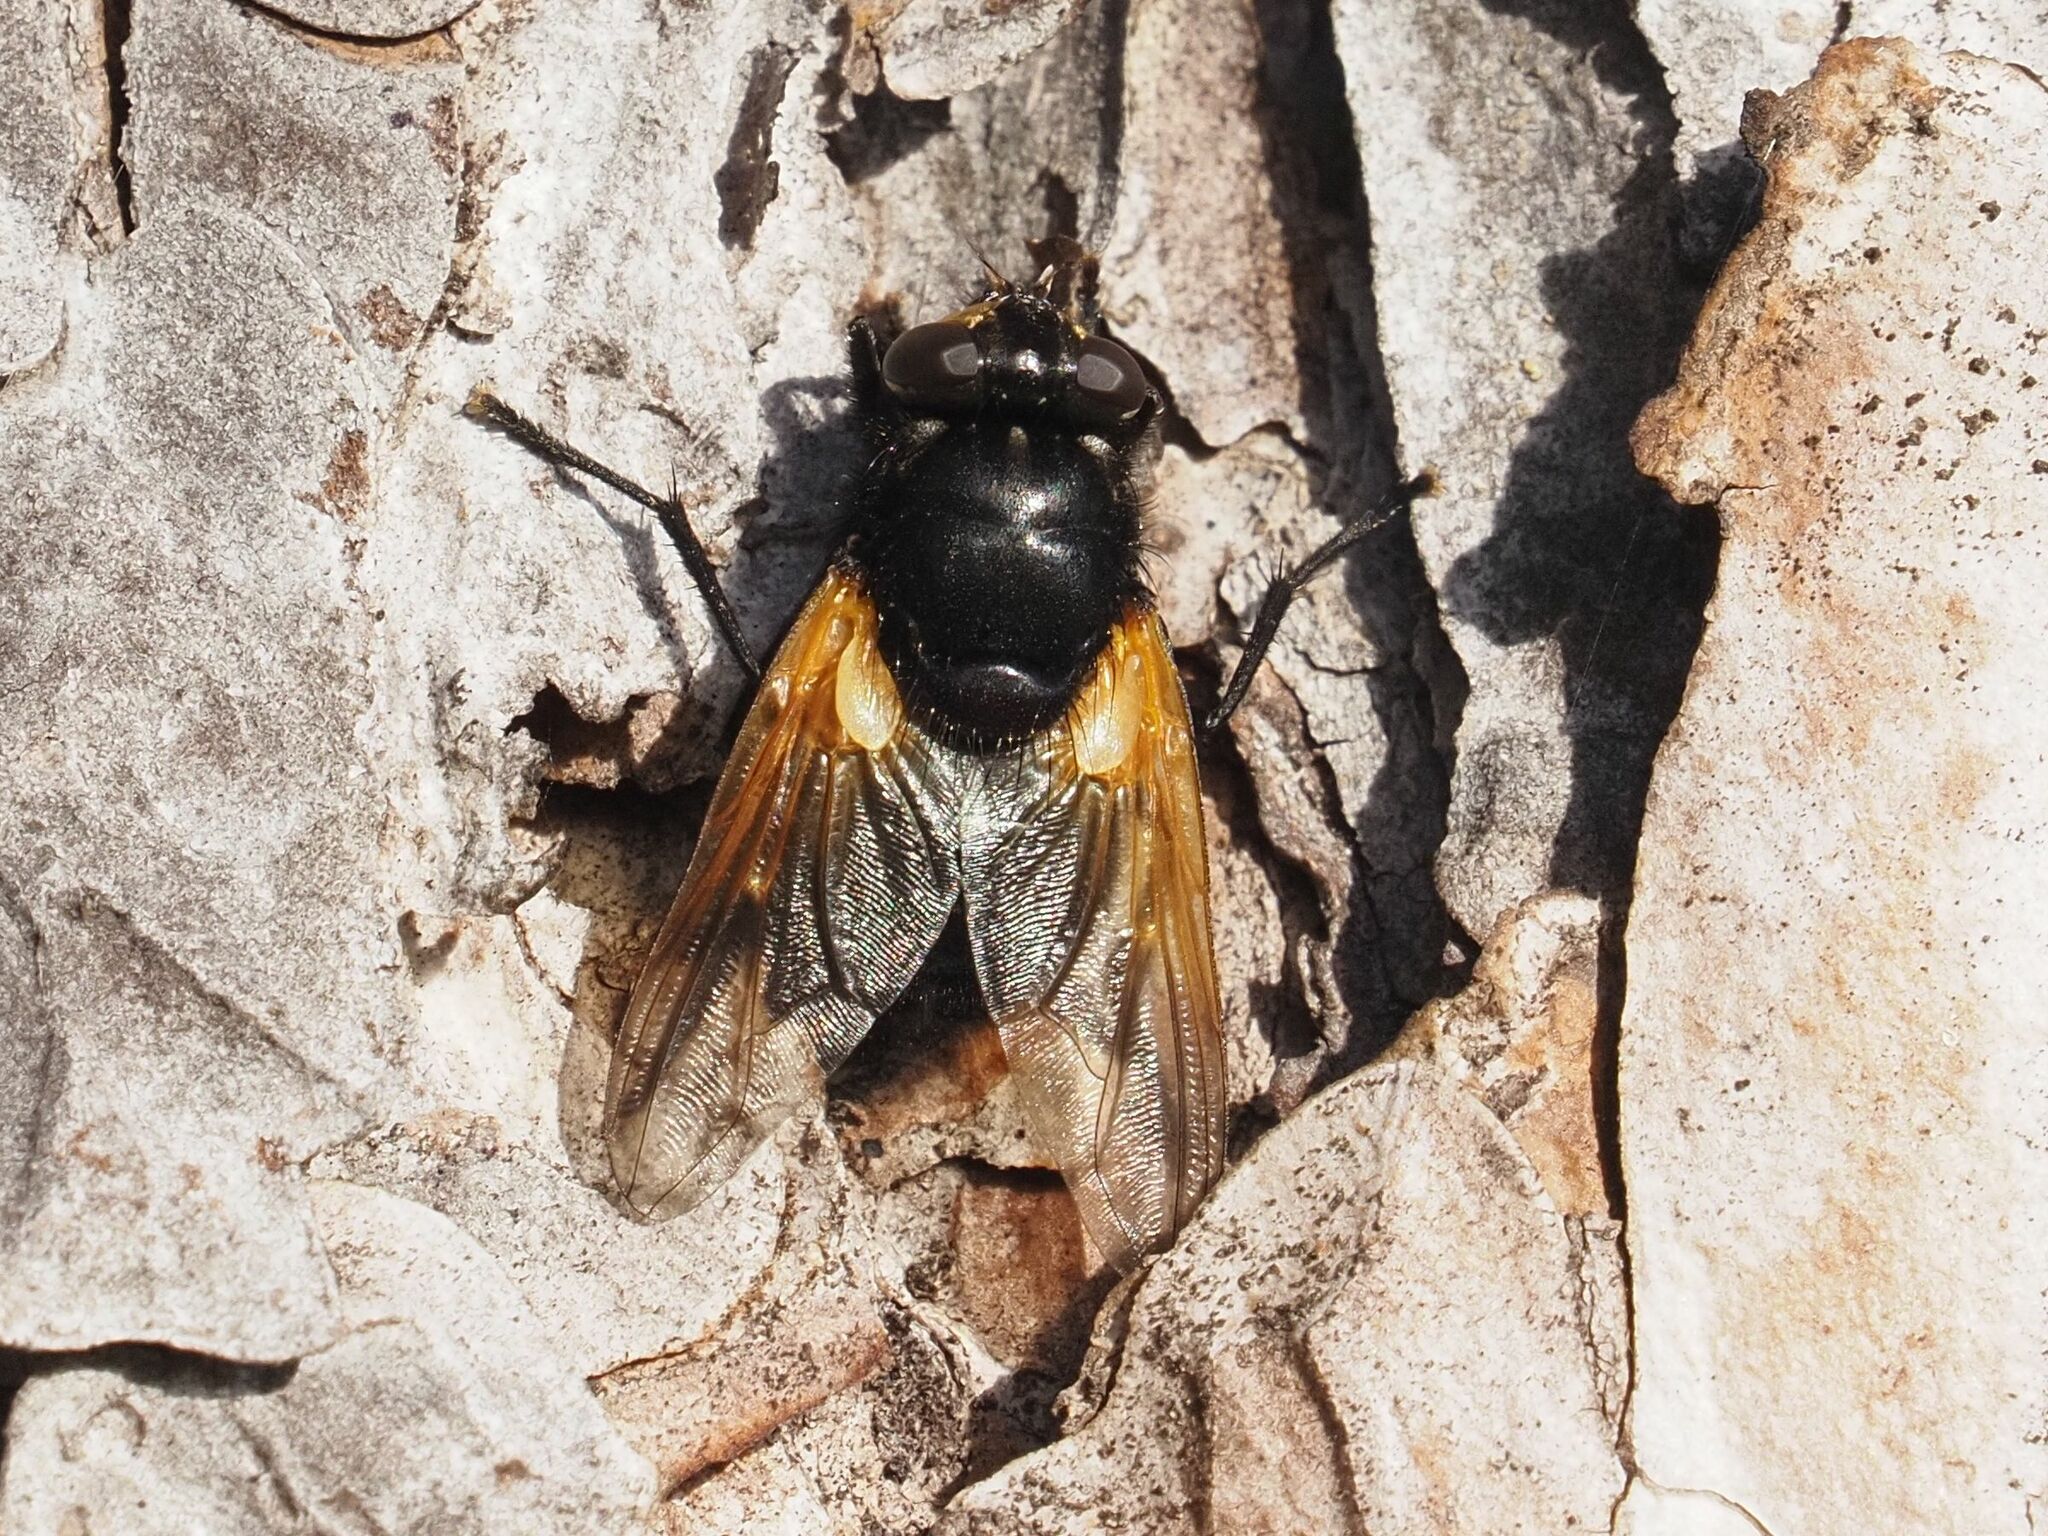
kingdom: Animalia
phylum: Arthropoda
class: Insecta
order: Diptera
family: Muscidae
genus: Mesembrina
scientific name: Mesembrina meridiana
